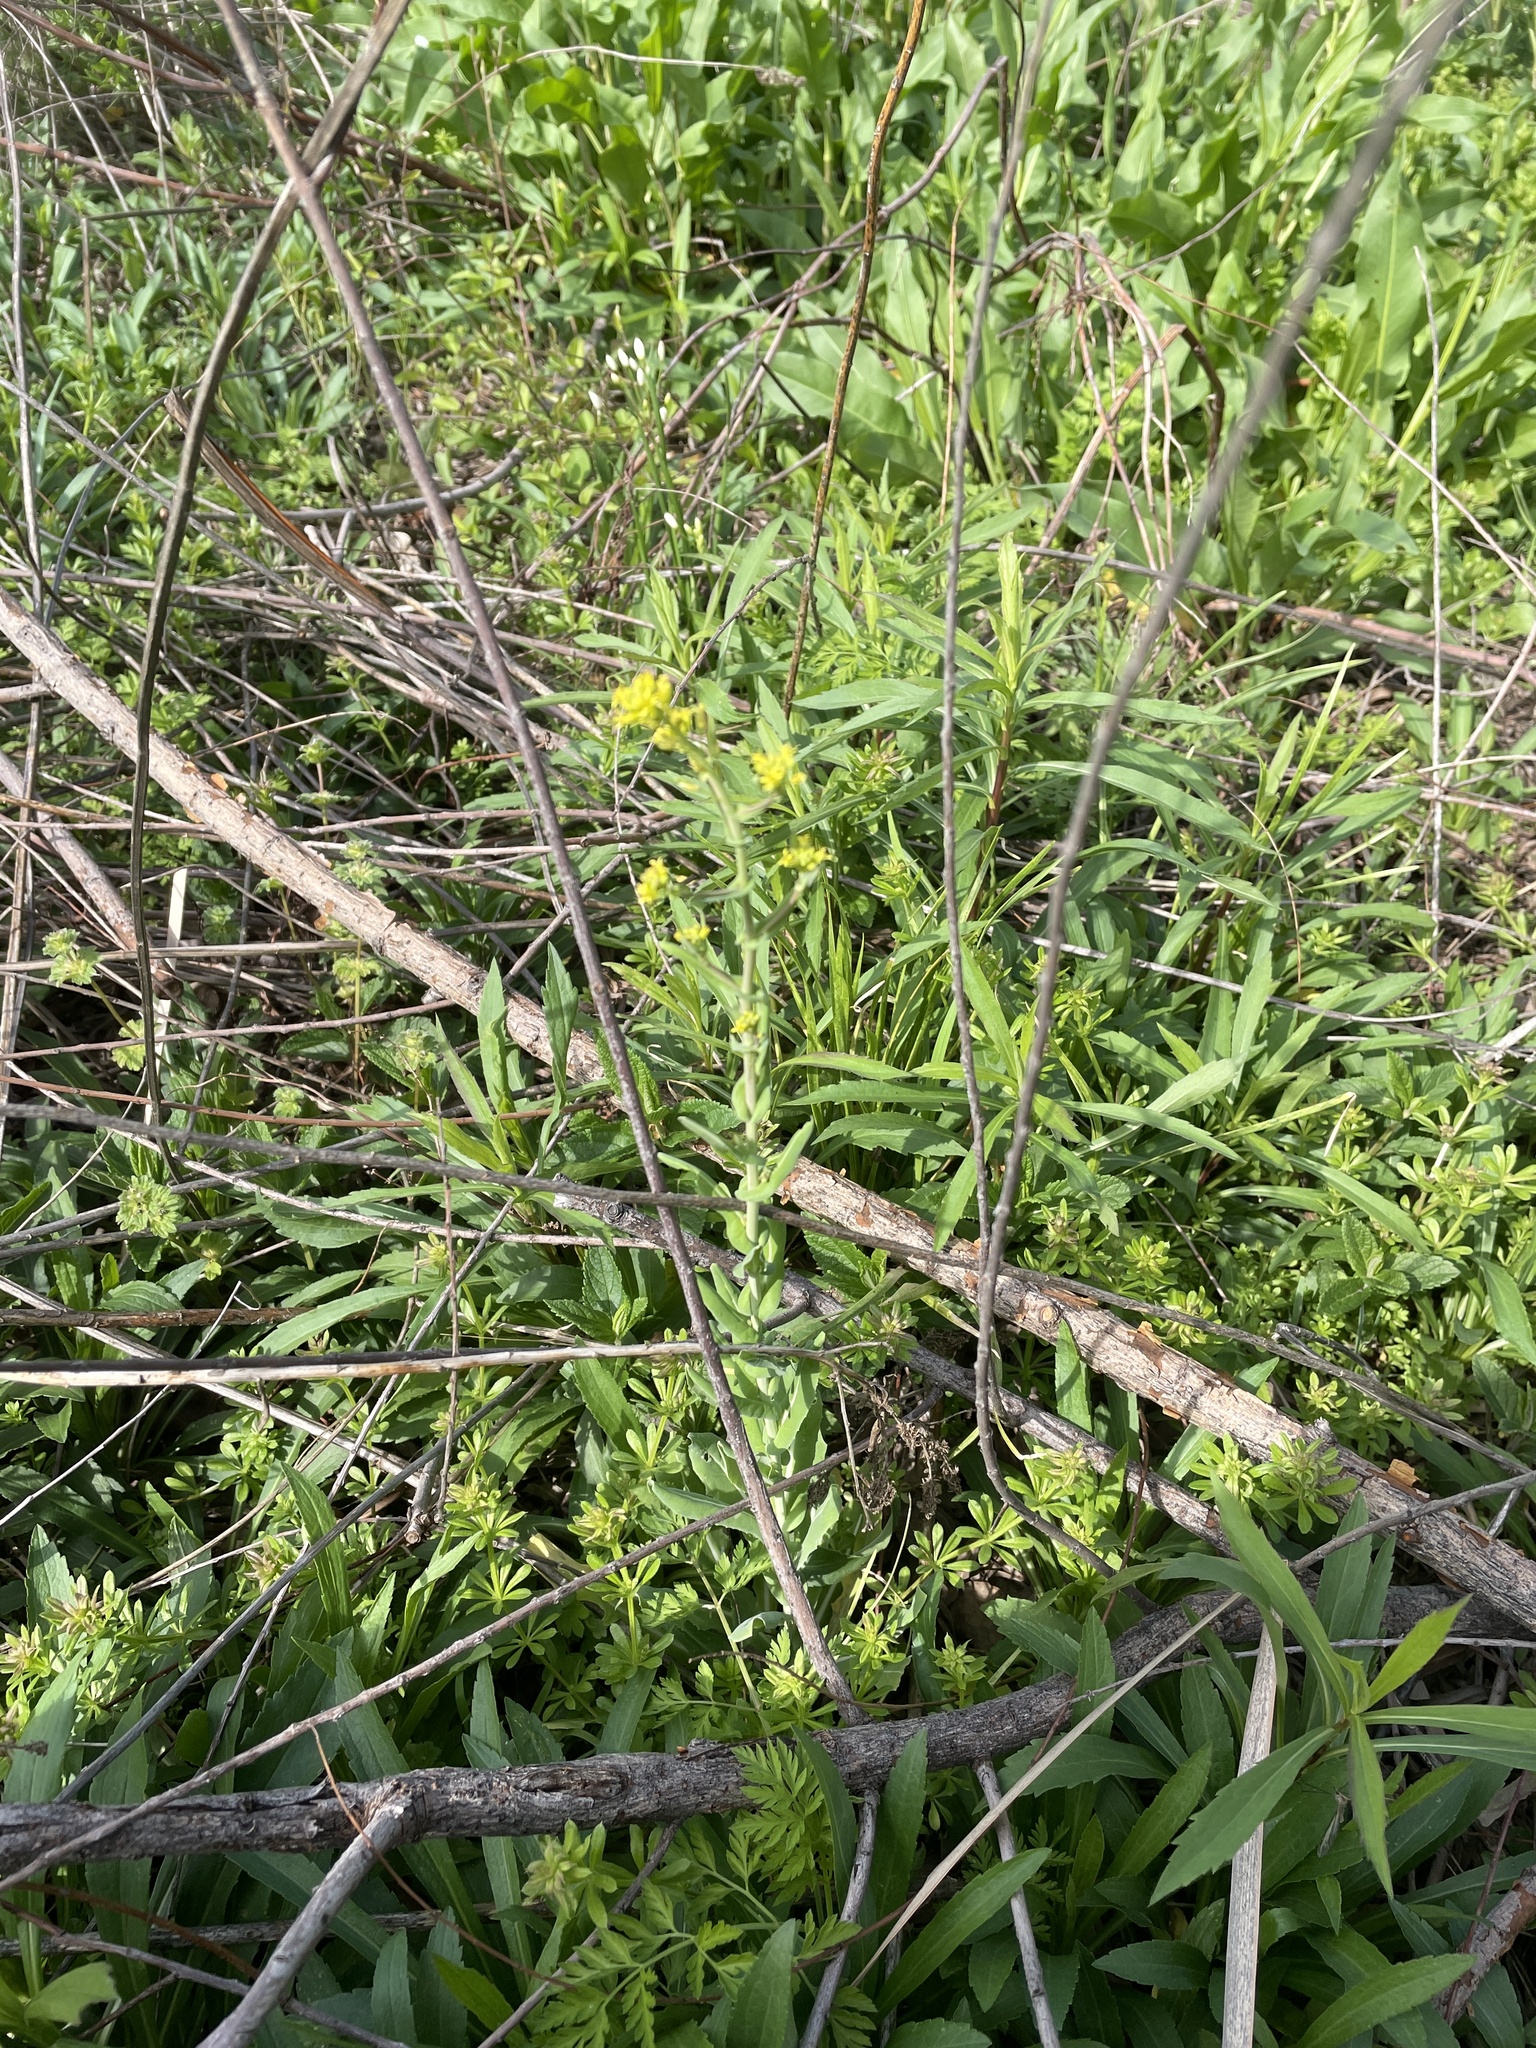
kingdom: Plantae
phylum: Tracheophyta
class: Magnoliopsida
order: Brassicales
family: Brassicaceae
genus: Myagrum
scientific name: Myagrum perfoliatum
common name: Mitre cress
